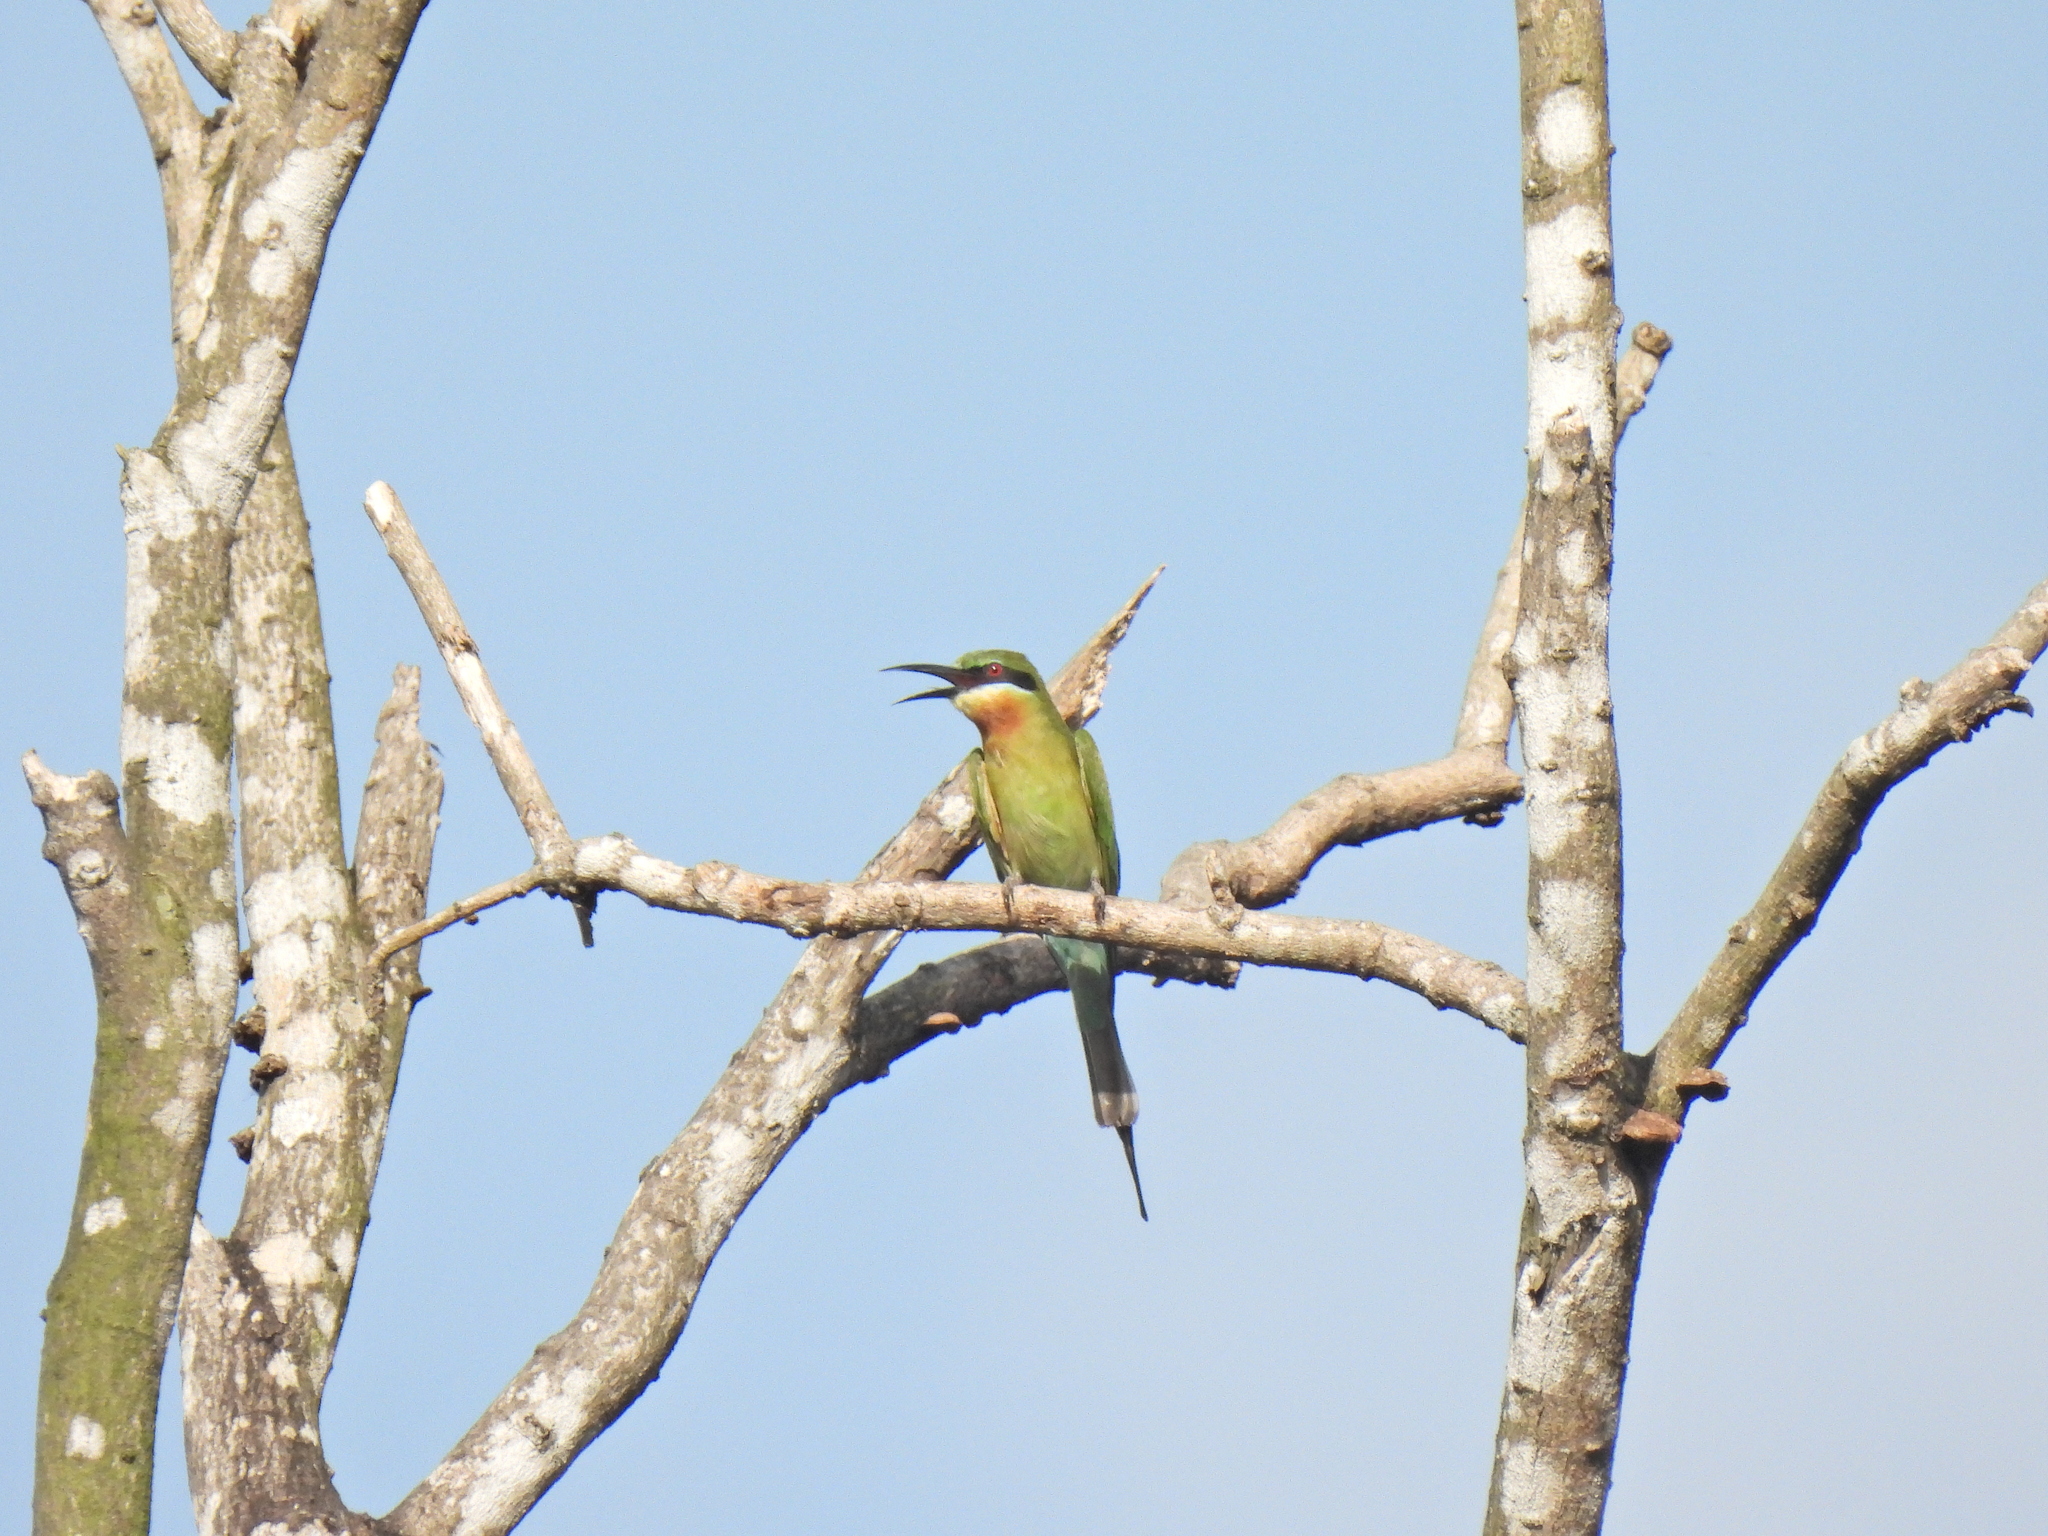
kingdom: Animalia
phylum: Chordata
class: Aves
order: Coraciiformes
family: Meropidae
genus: Merops
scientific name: Merops philippinus
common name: Blue-tailed bee-eater
